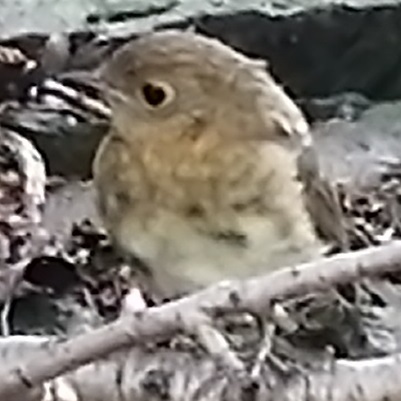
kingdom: Animalia
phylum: Chordata
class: Aves
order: Passeriformes
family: Muscicapidae
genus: Erithacus
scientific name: Erithacus rubecula
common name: European robin
